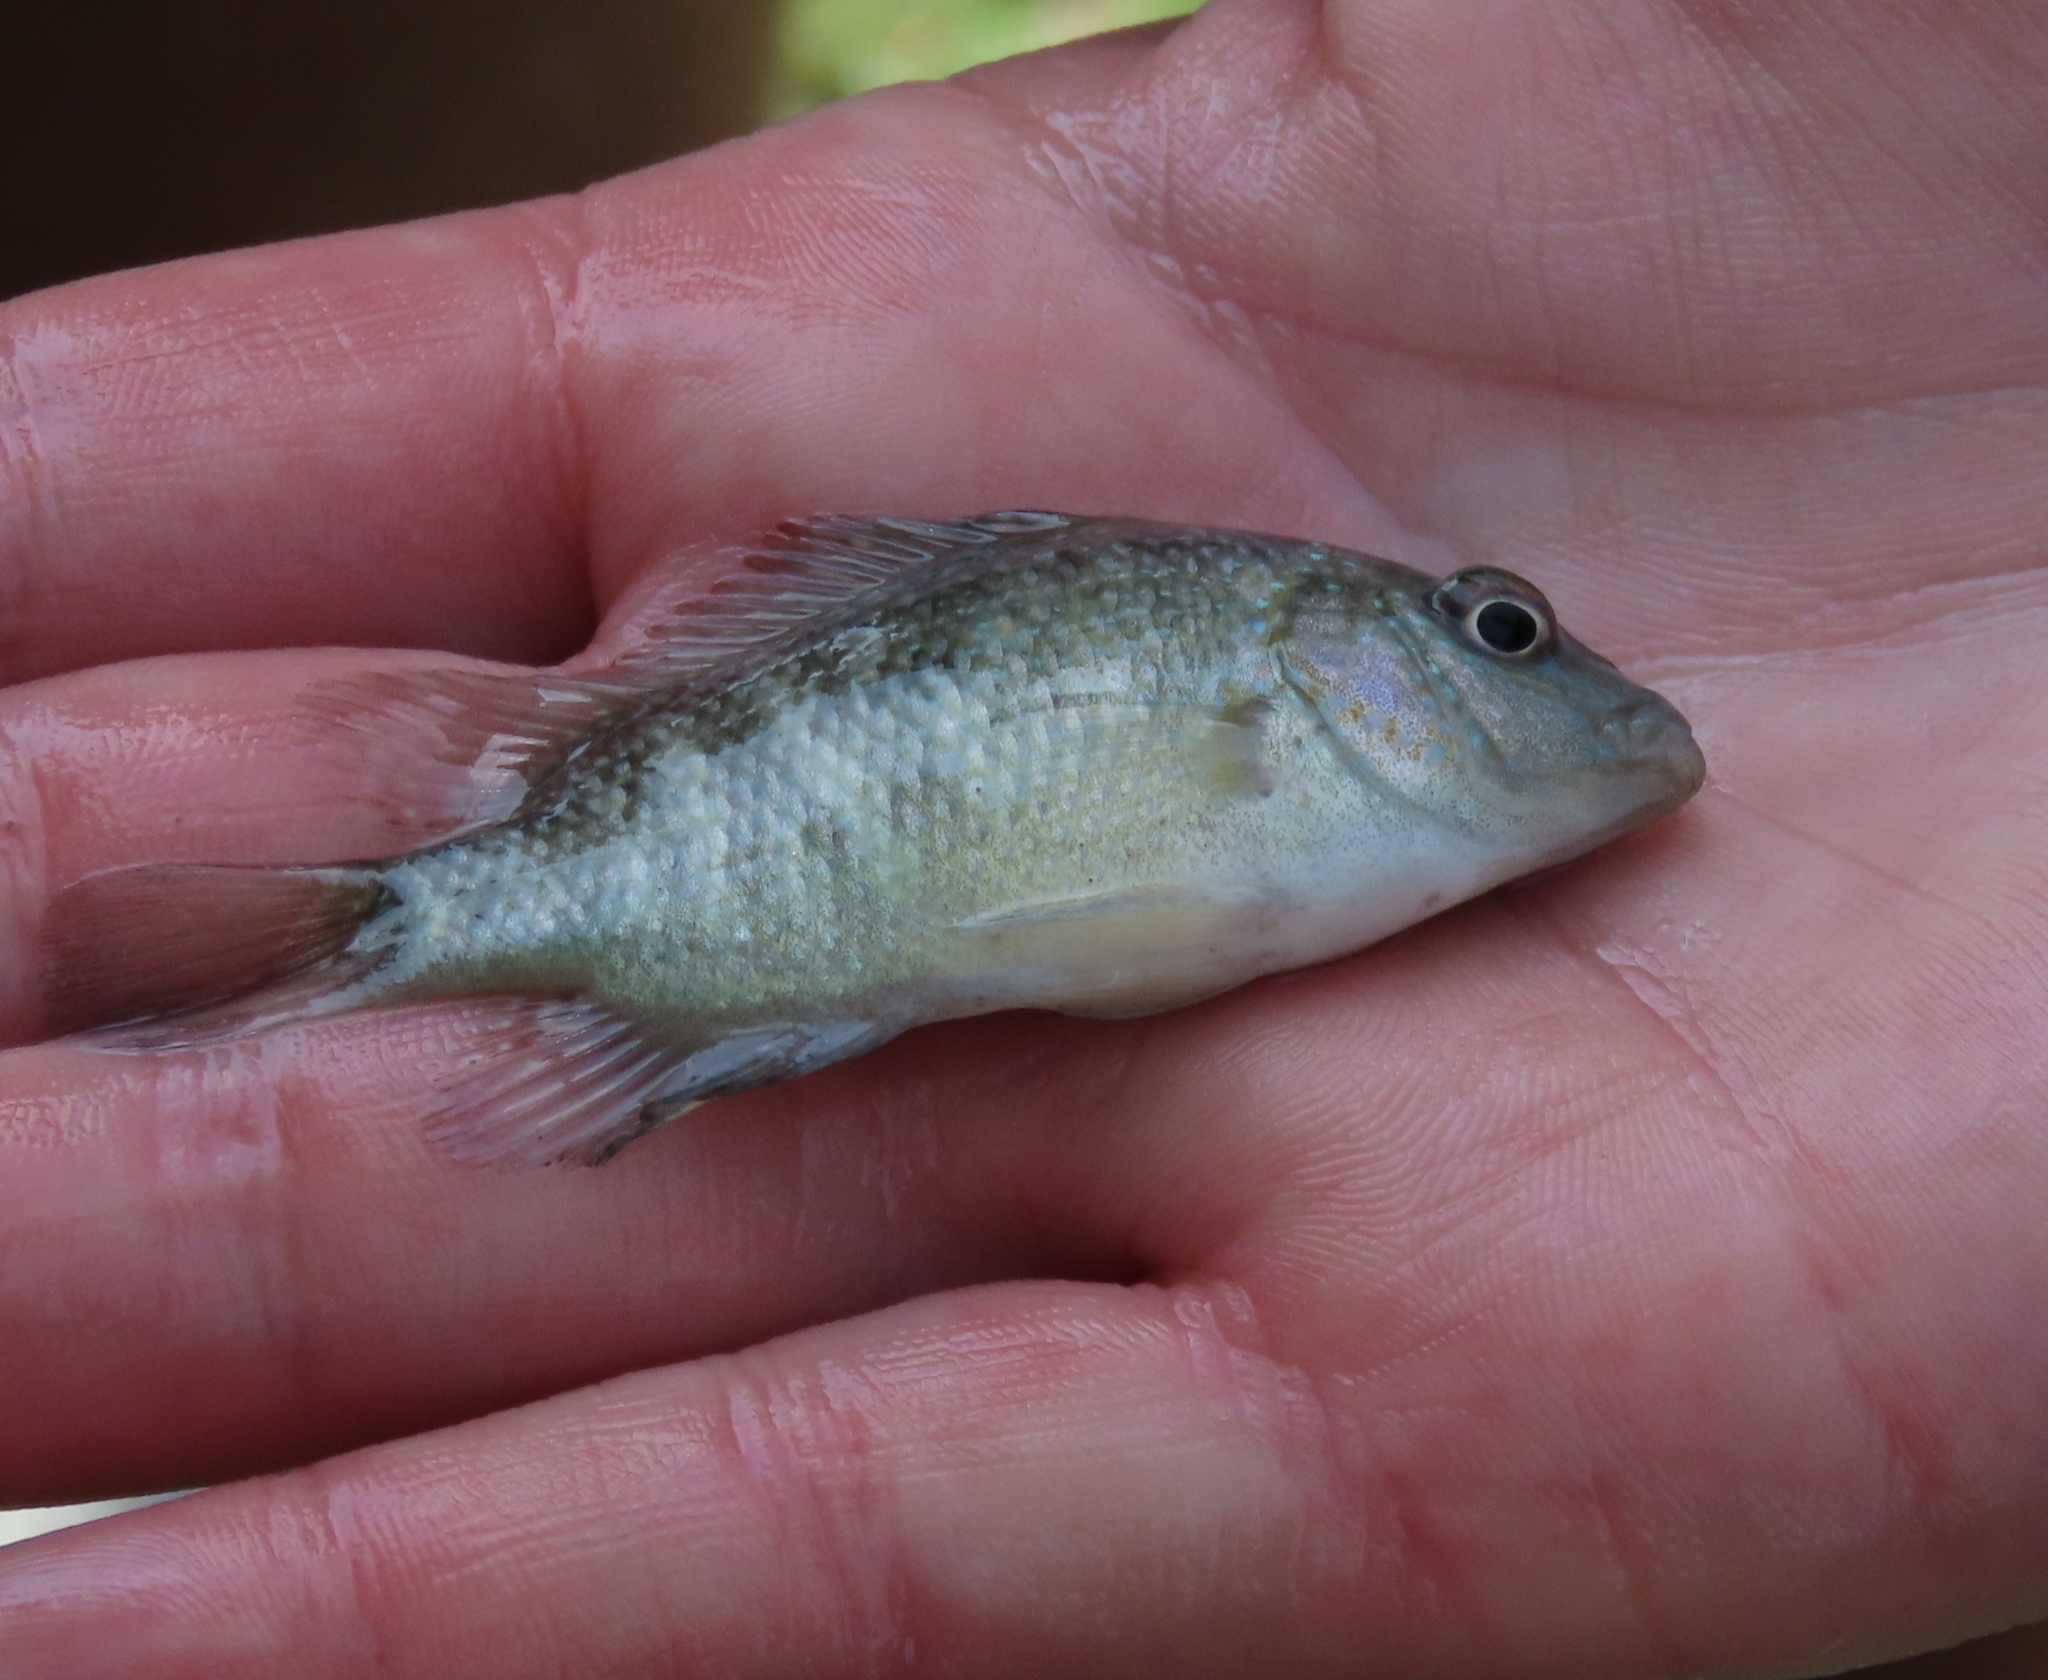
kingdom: Animalia
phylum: Chordata
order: Perciformes
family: Cichlidae
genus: Herichthys
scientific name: Herichthys cyanoguttatus
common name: Rio grande cichlid
